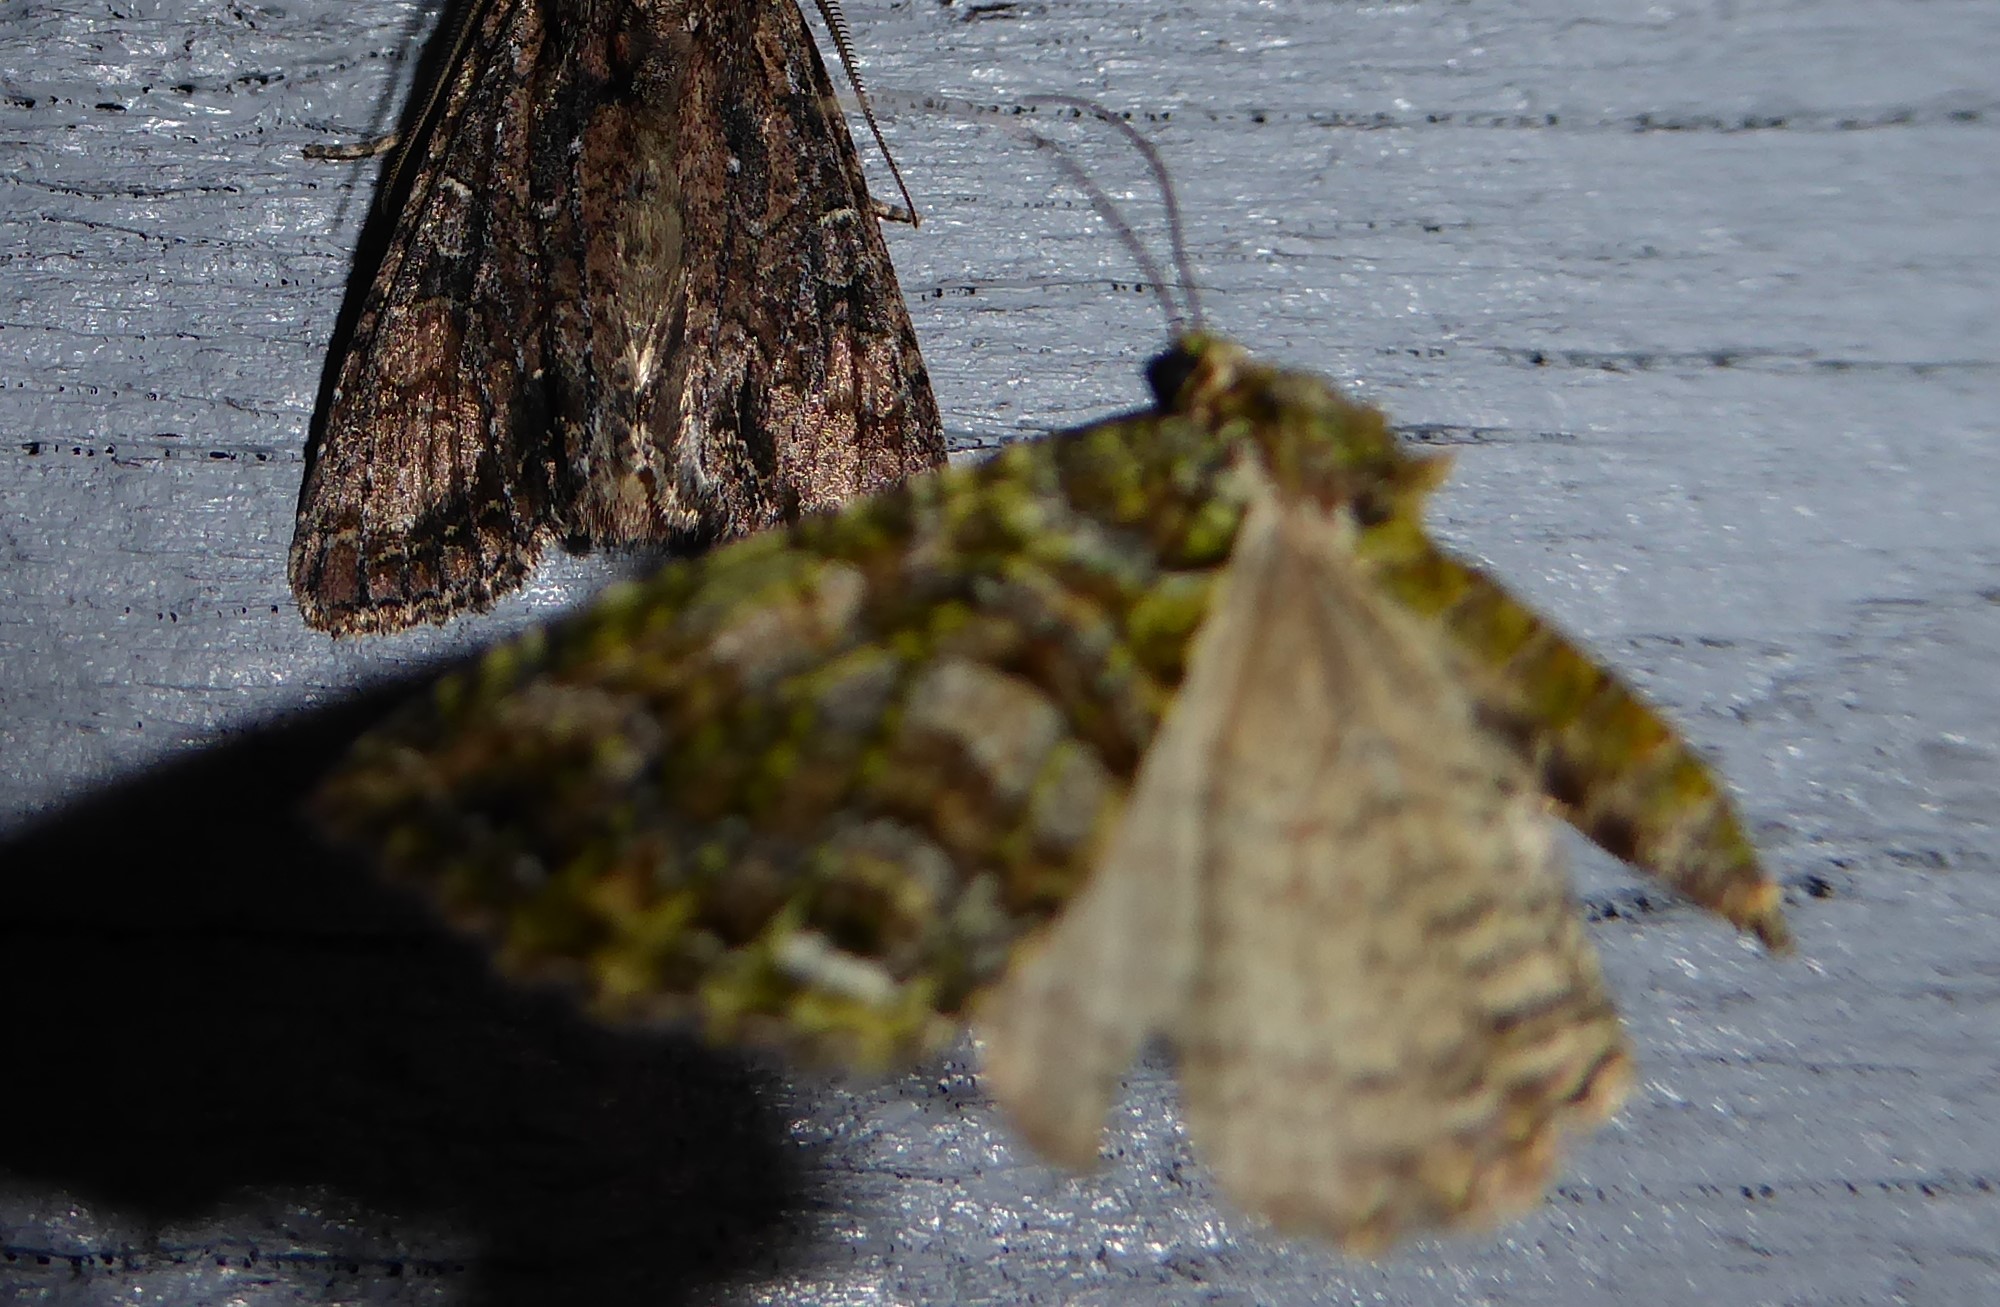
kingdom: Animalia
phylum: Arthropoda
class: Insecta
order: Lepidoptera
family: Geometridae
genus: Austrocidaria
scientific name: Austrocidaria similata
